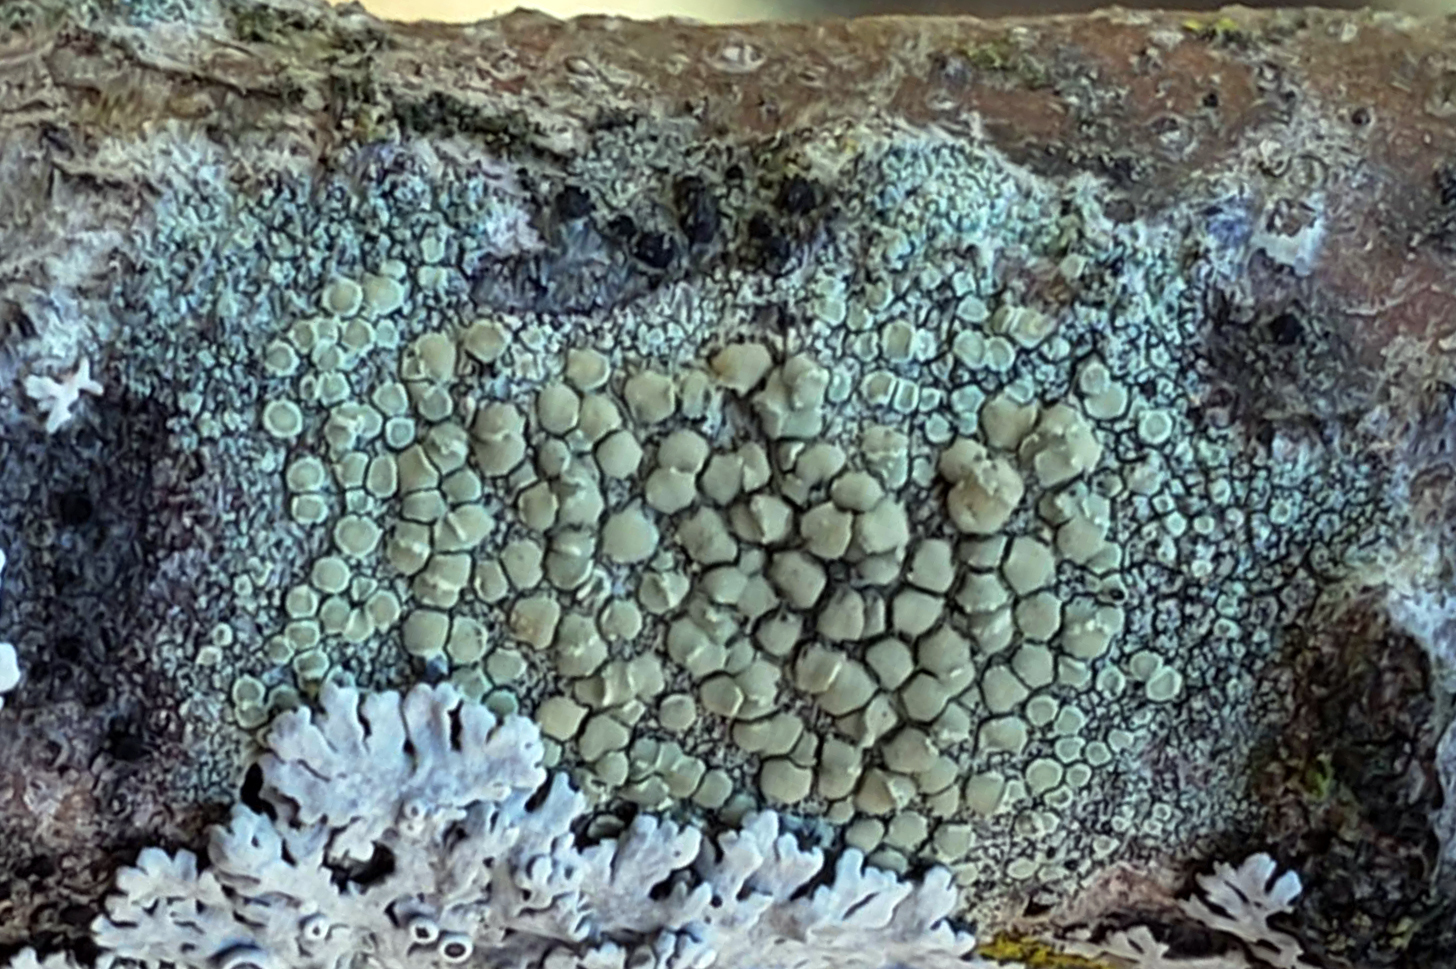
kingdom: Fungi
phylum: Ascomycota
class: Lecanoromycetes
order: Lecanorales
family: Lecanoraceae
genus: Lecanora
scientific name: Lecanora strobilina
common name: Mealy rim-lichen
